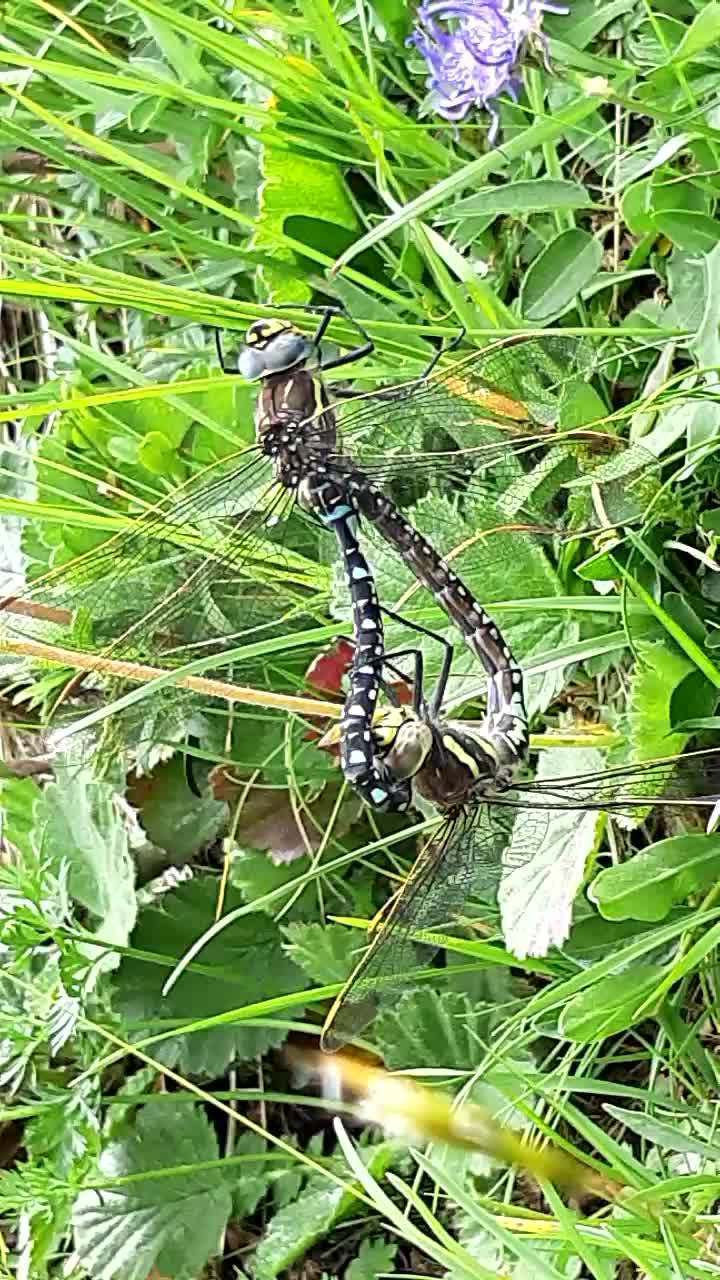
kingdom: Animalia
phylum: Arthropoda
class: Insecta
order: Odonata
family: Aeshnidae
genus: Aeshna
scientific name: Aeshna juncea
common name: Moorland hawker
